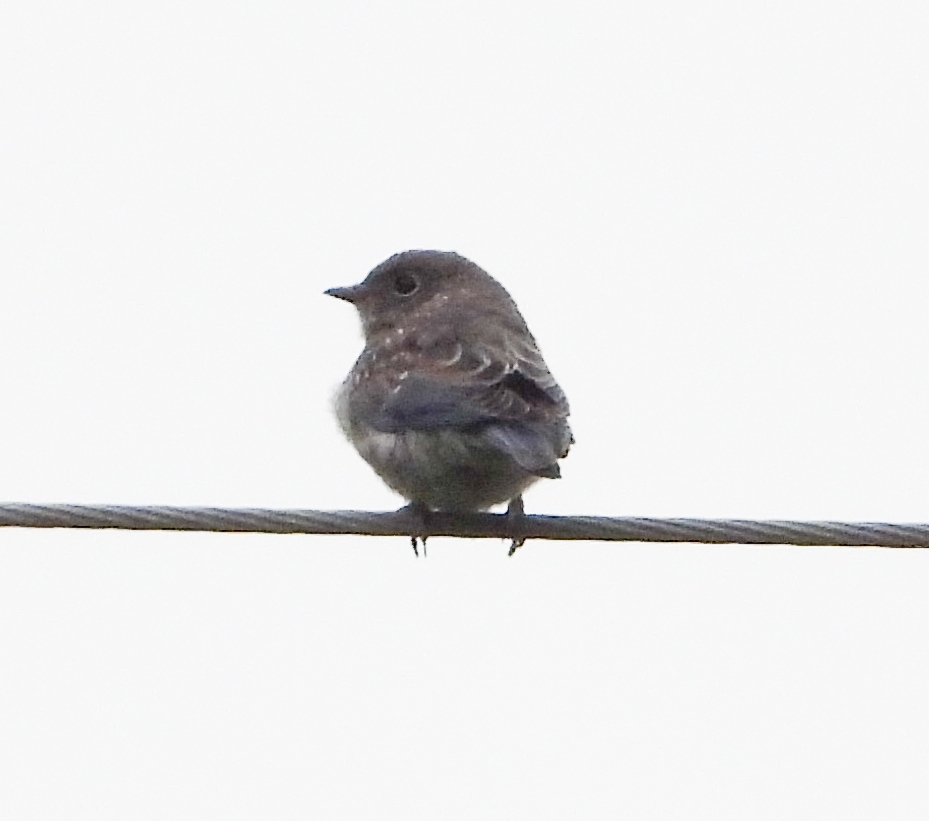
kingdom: Animalia
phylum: Chordata
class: Aves
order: Passeriformes
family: Turdidae
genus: Sialia
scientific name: Sialia sialis
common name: Eastern bluebird
